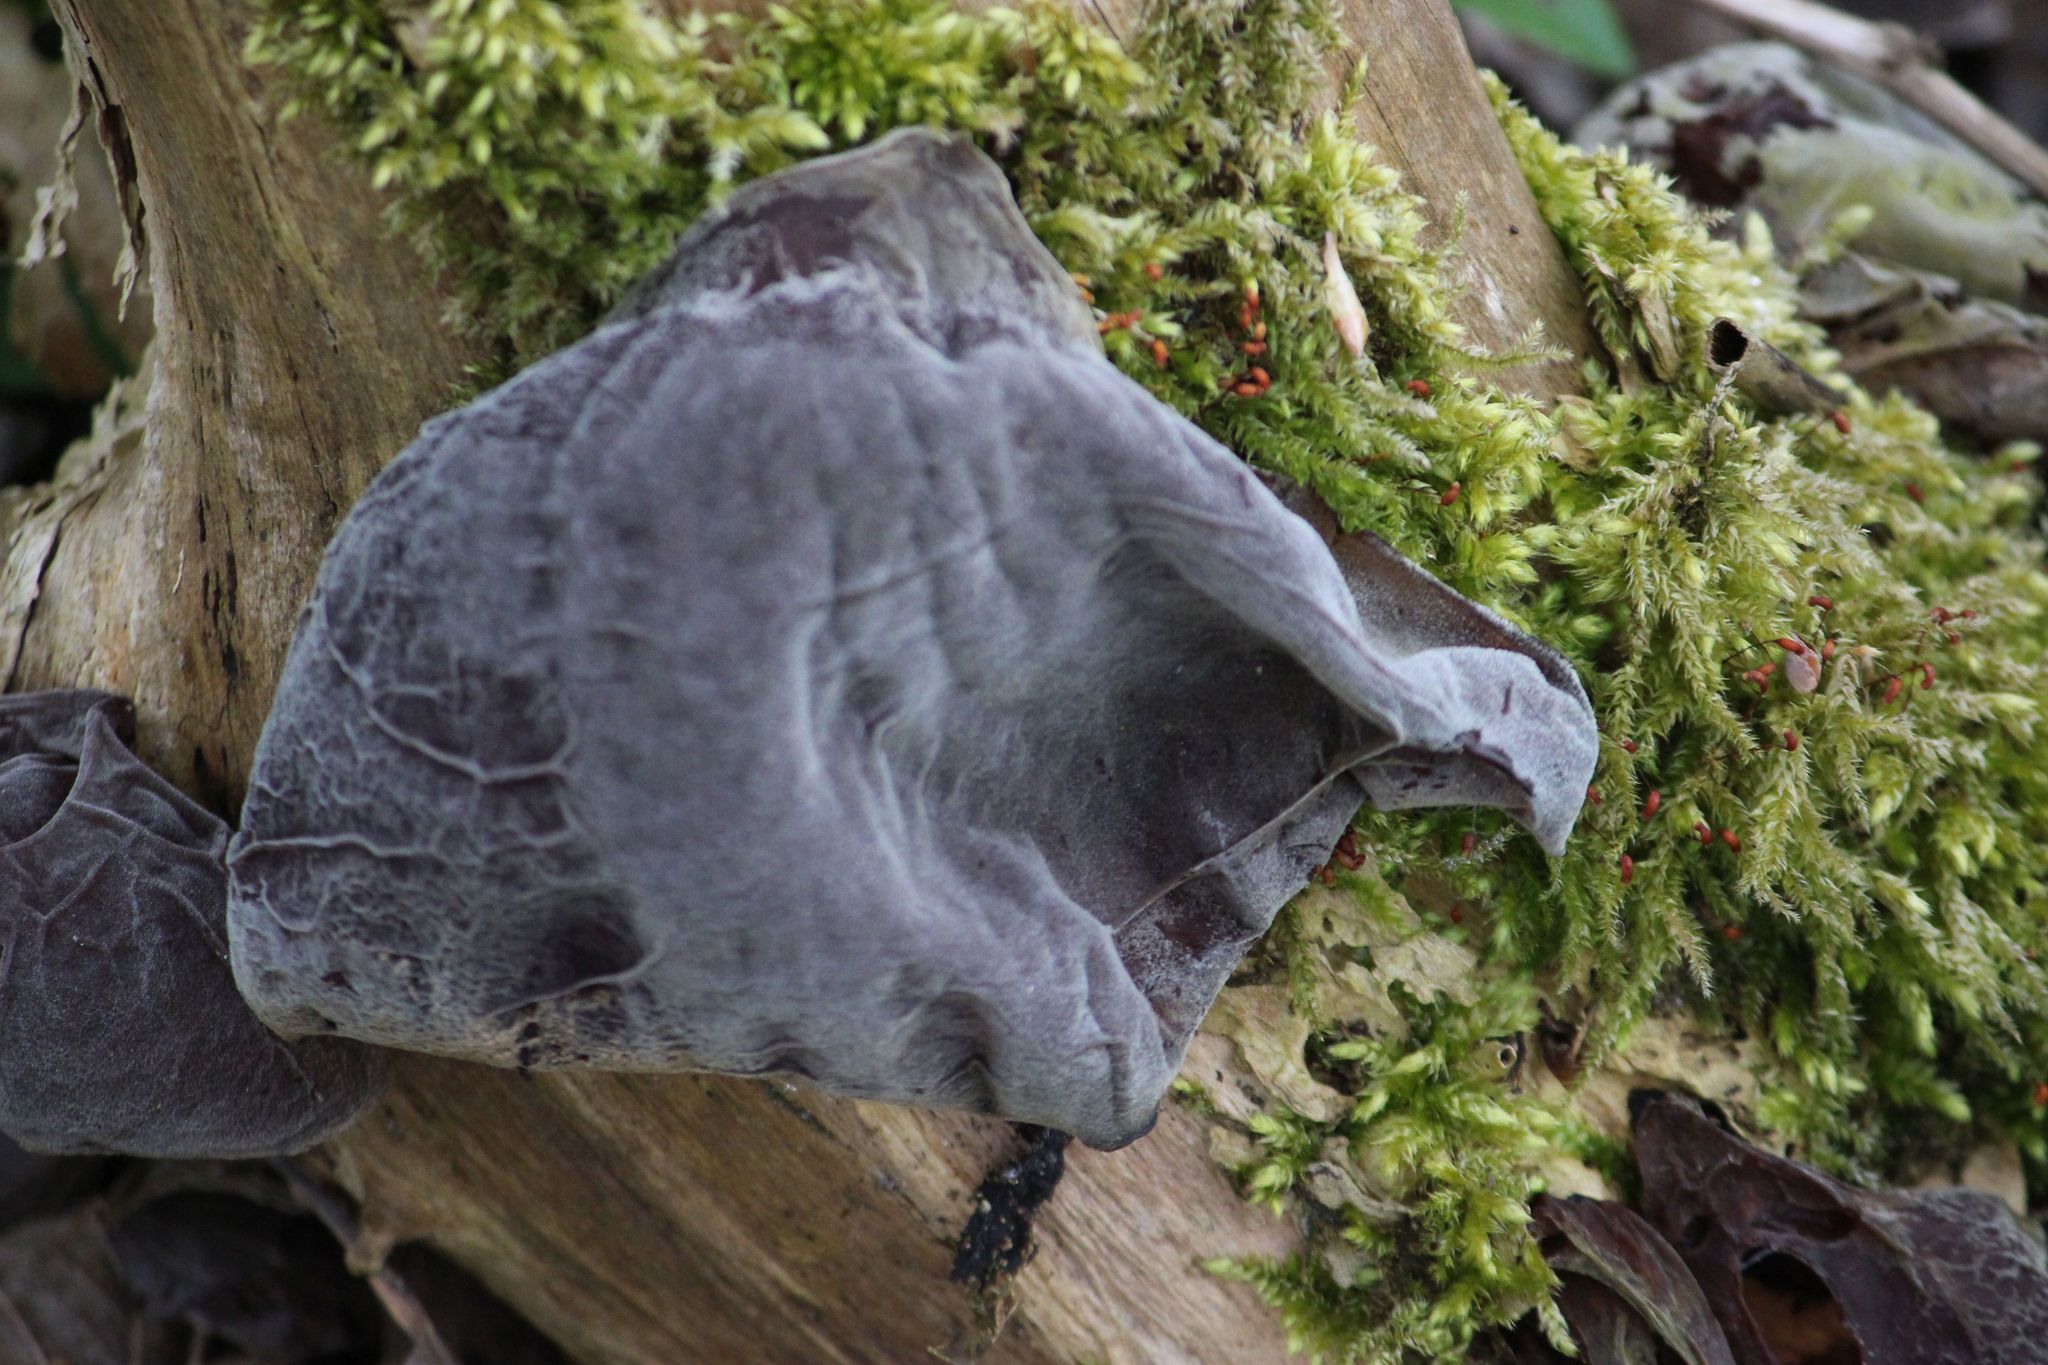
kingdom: Fungi
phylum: Basidiomycota
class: Agaricomycetes
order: Auriculariales
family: Auriculariaceae
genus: Auricularia
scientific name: Auricularia auricula-judae
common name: Jelly ear
